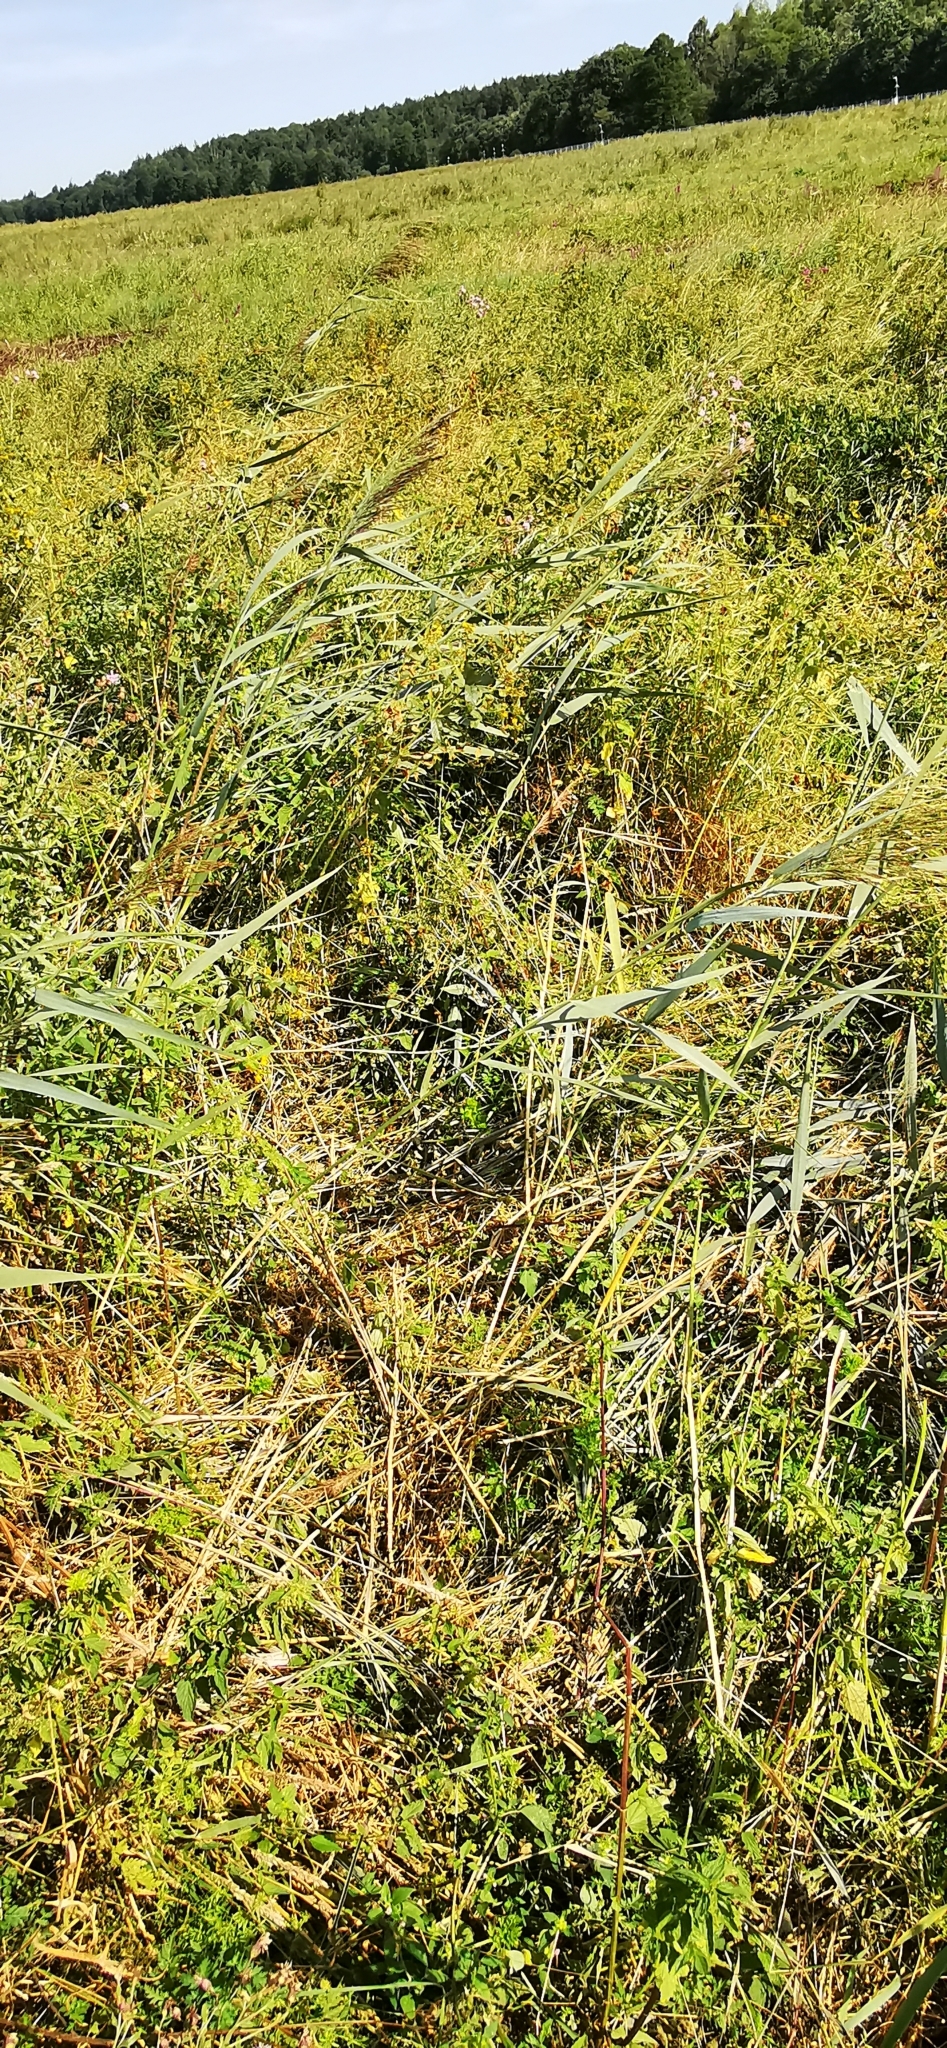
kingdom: Plantae
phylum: Tracheophyta
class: Liliopsida
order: Poales
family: Poaceae
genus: Phragmites
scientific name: Phragmites australis
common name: Common reed
